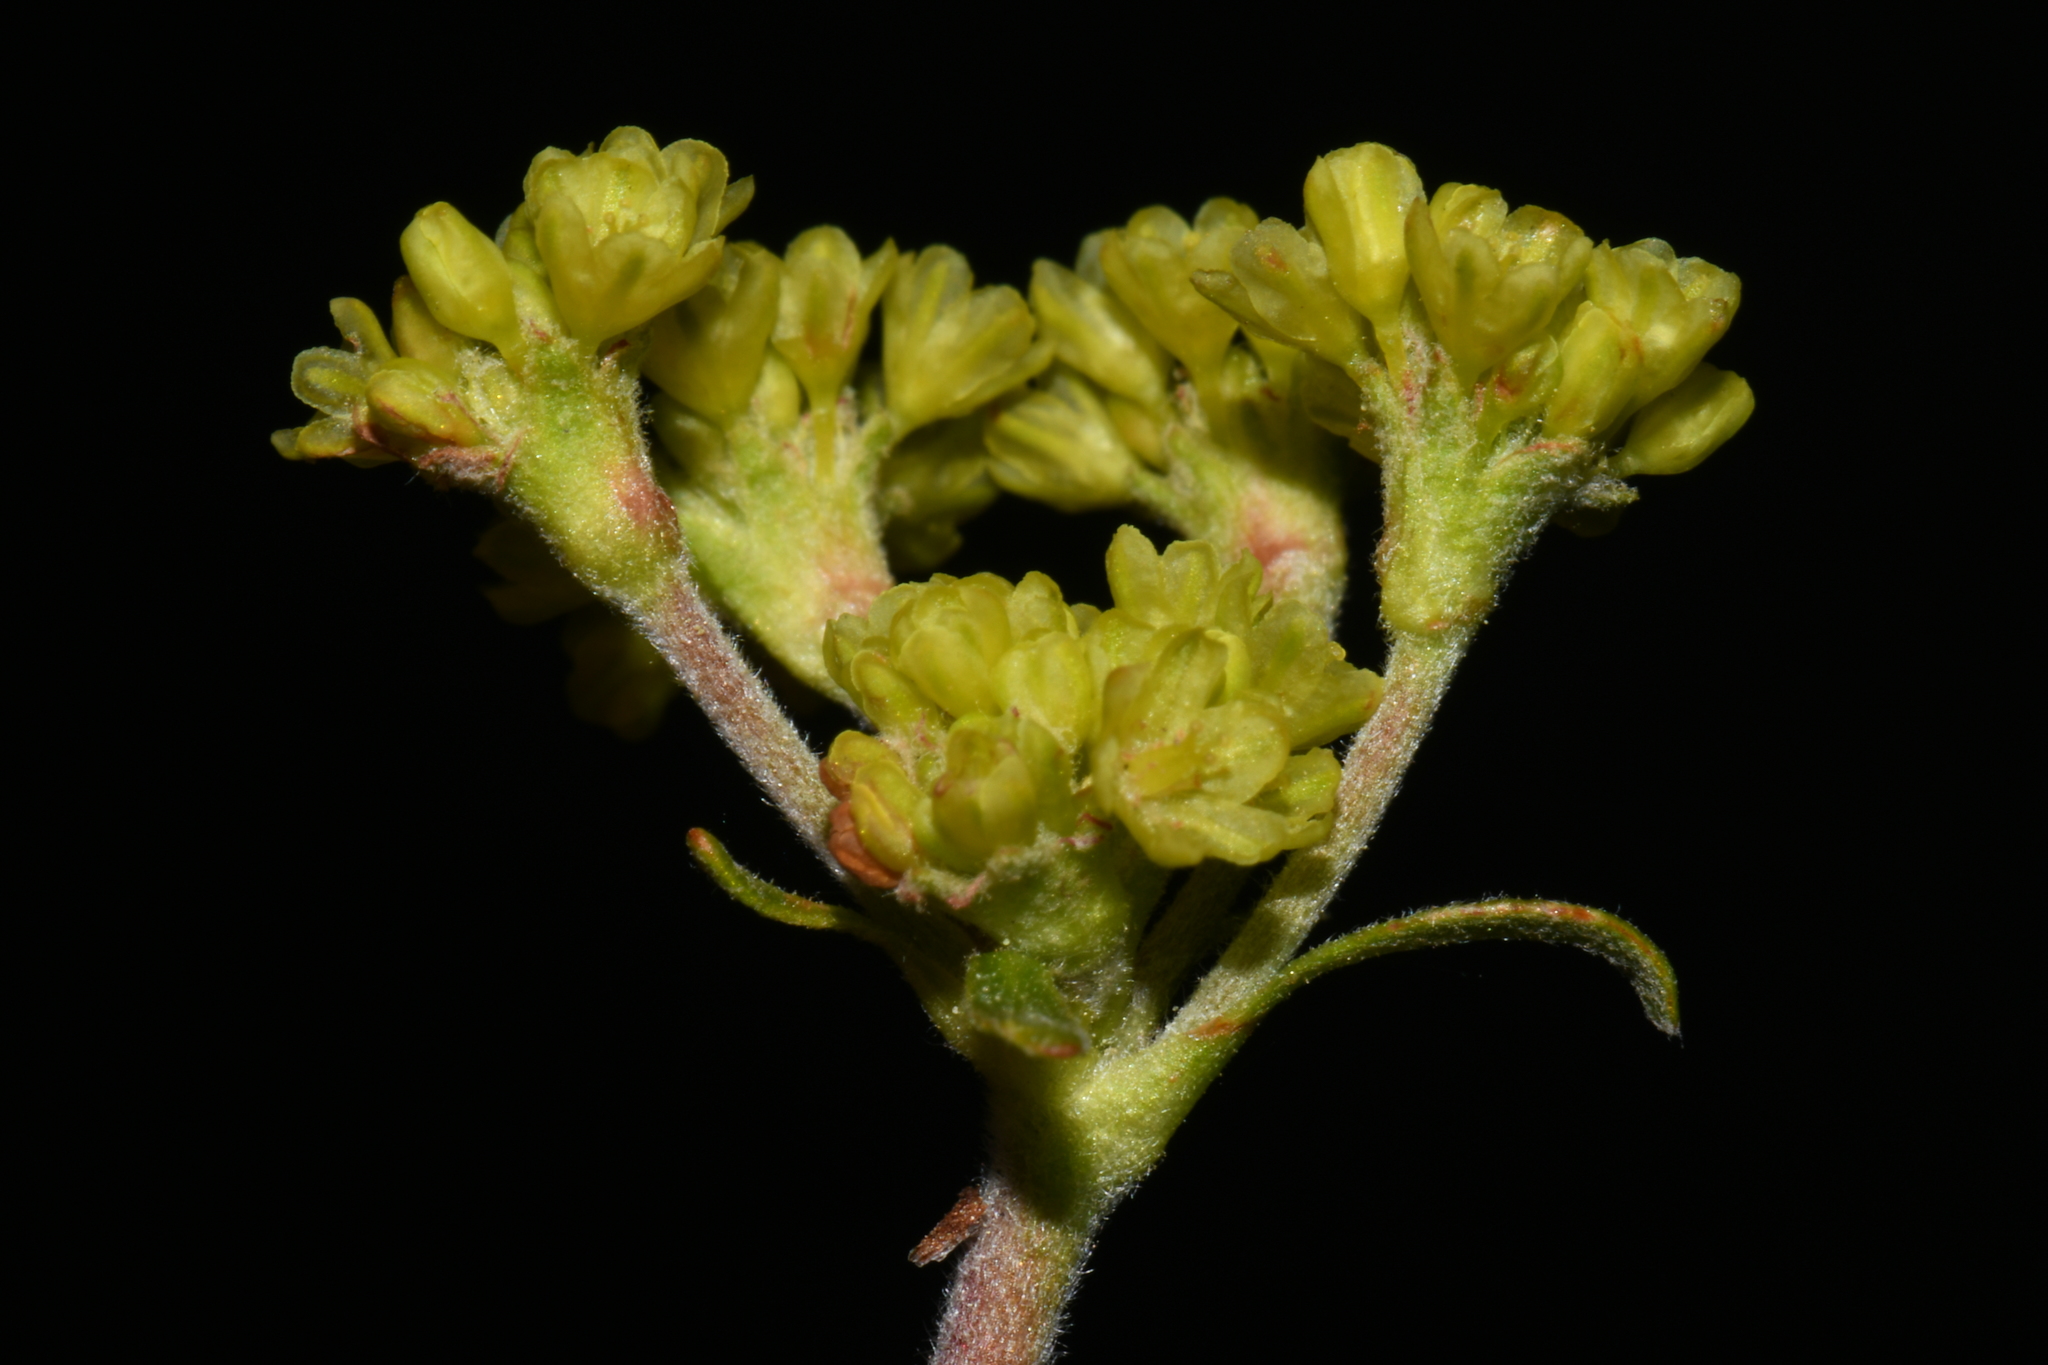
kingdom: Plantae
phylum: Tracheophyta
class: Magnoliopsida
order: Caryophyllales
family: Polygonaceae
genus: Eriogonum
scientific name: Eriogonum marifolium
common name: Marum-leaf wild buckwheat
